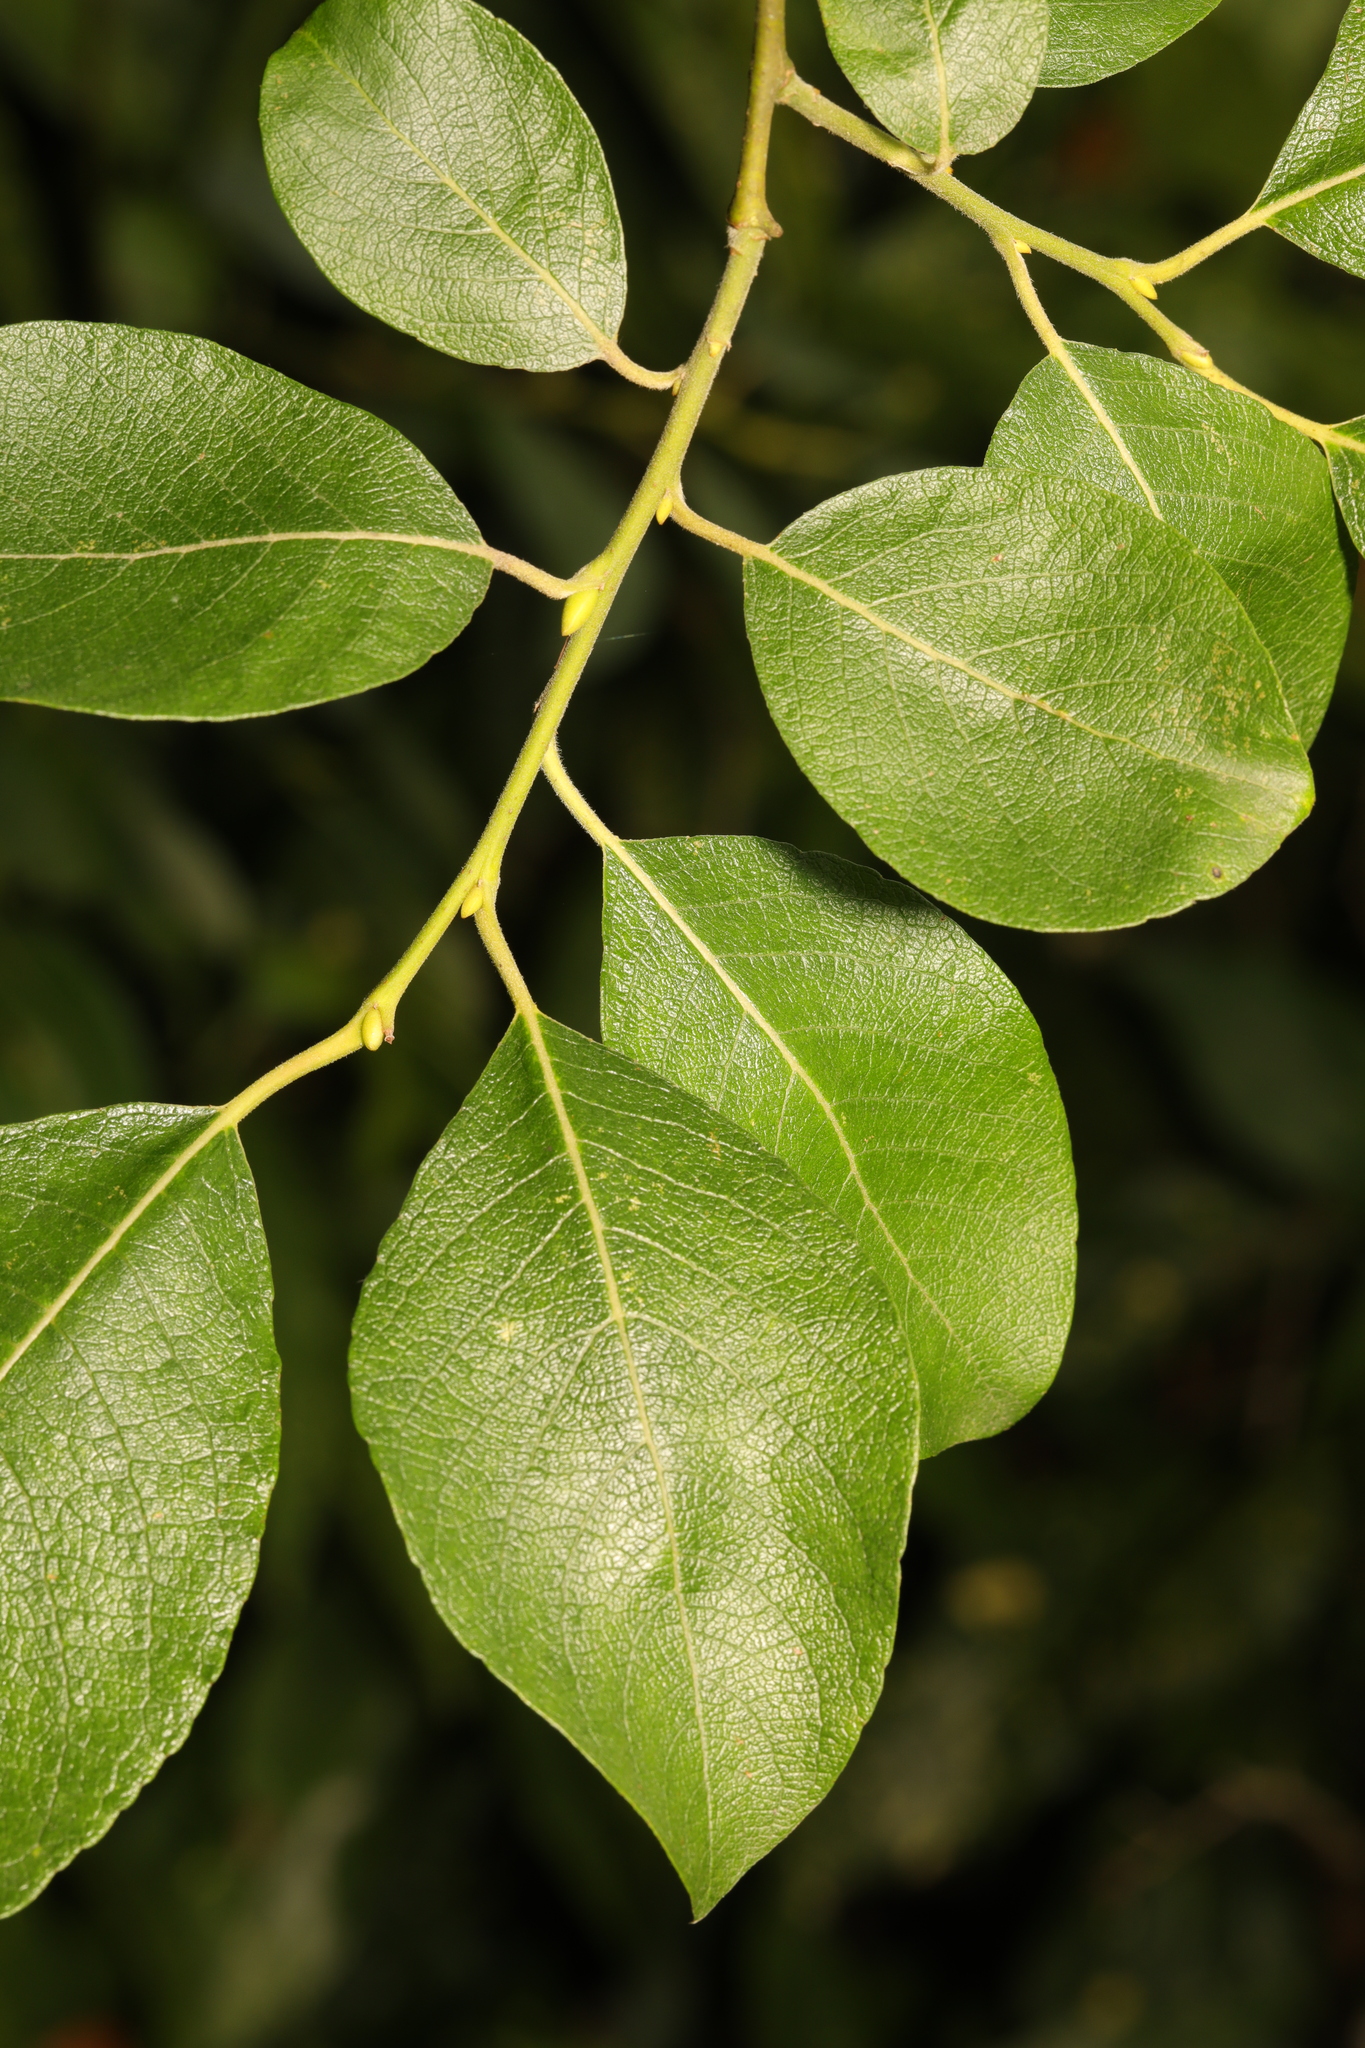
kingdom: Plantae
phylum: Tracheophyta
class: Magnoliopsida
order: Malpighiales
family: Salicaceae
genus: Salix
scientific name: Salix caprea
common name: Goat willow
